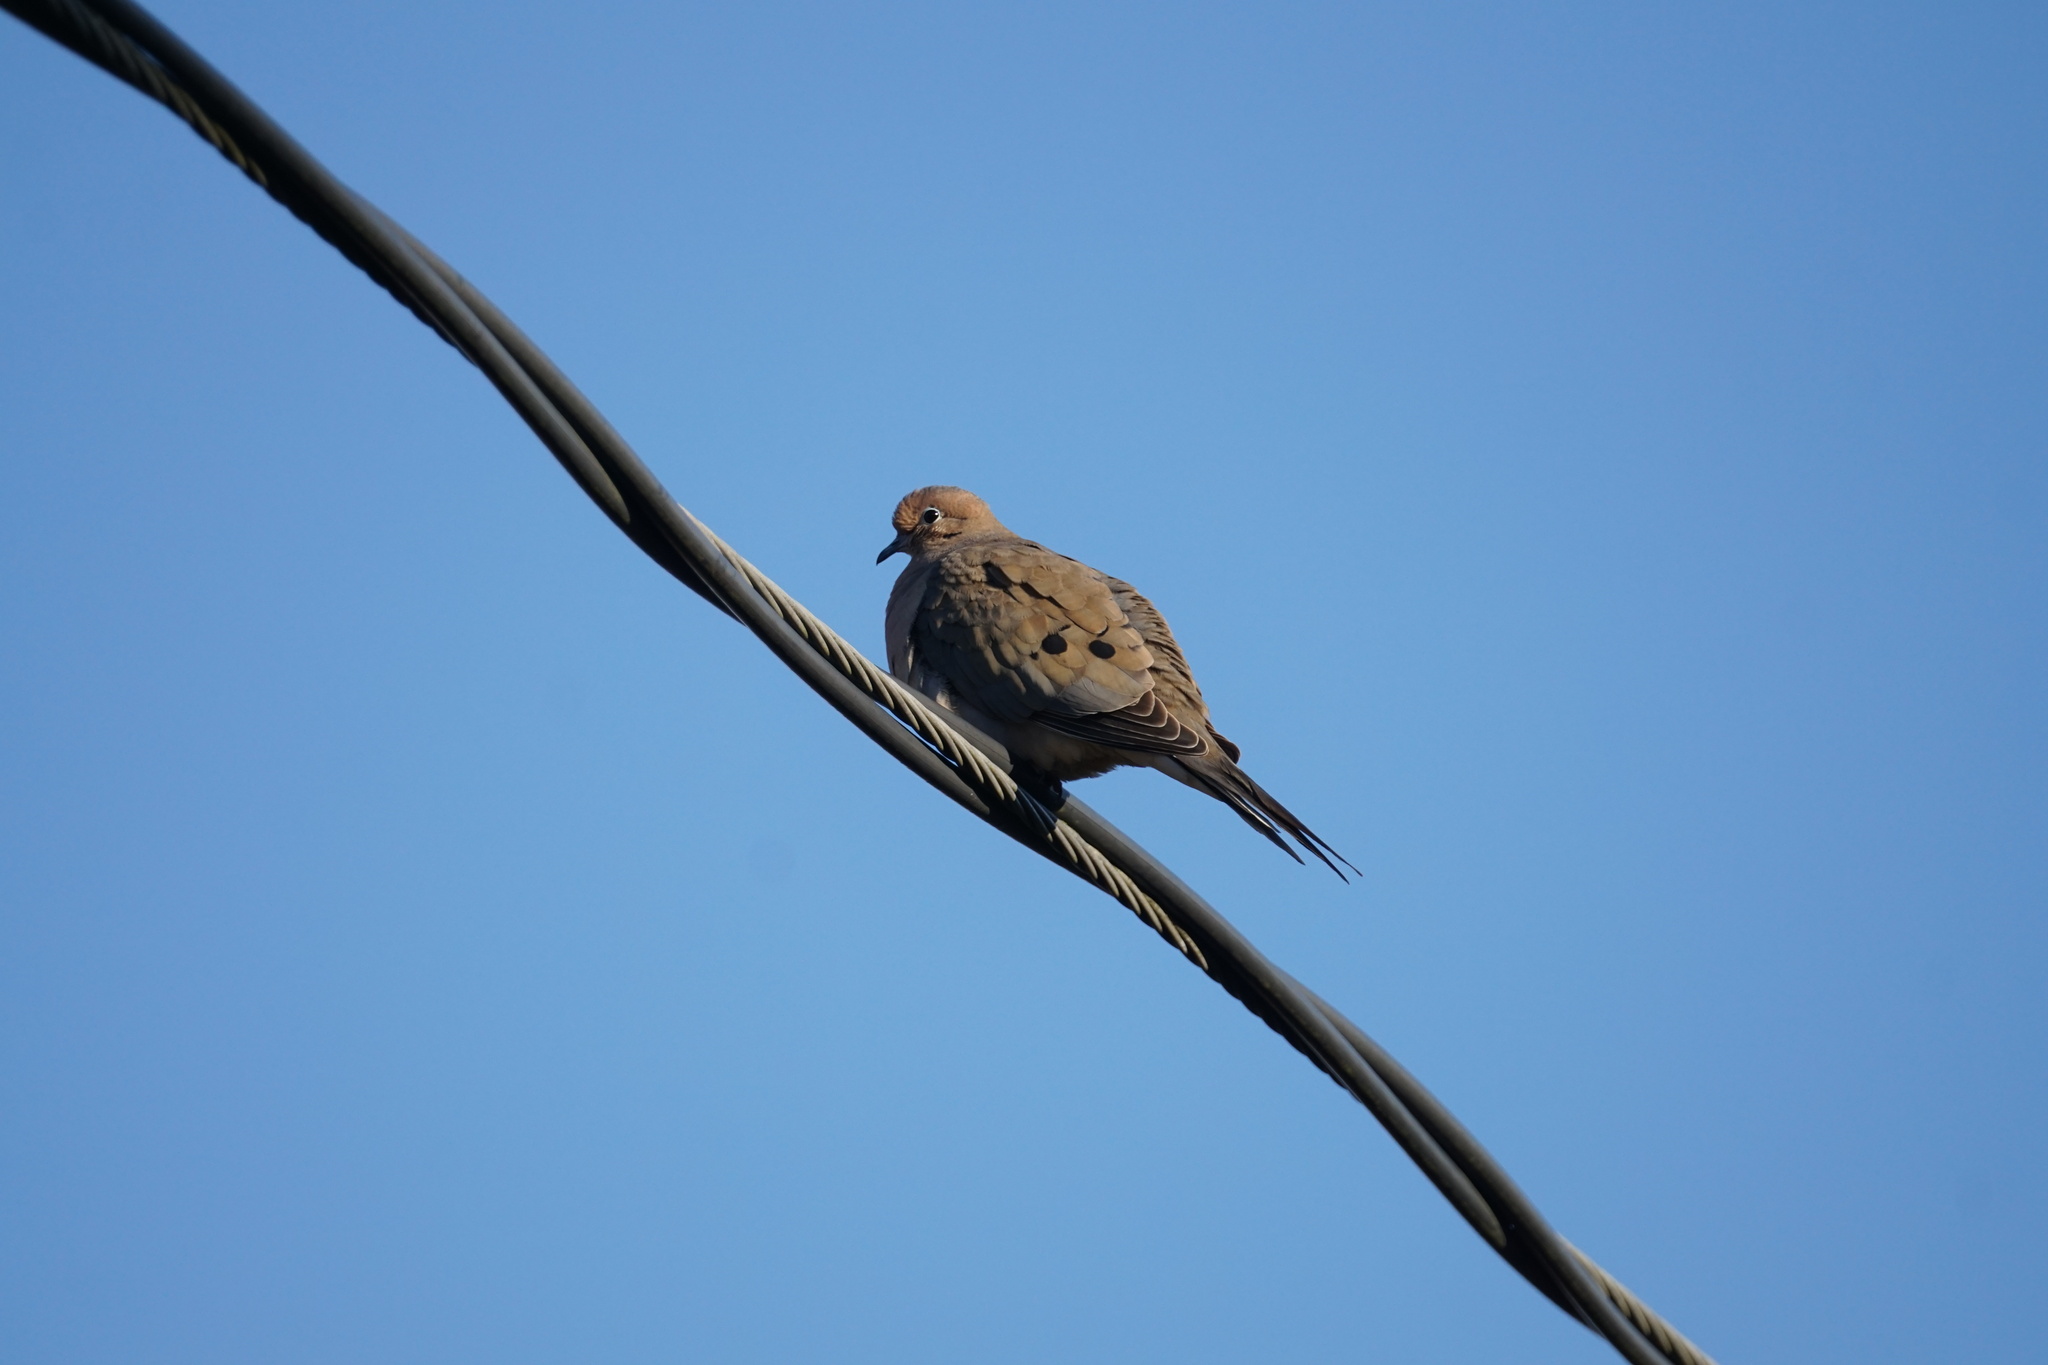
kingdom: Animalia
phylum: Chordata
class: Aves
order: Columbiformes
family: Columbidae
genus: Zenaida
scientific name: Zenaida macroura
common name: Mourning dove
